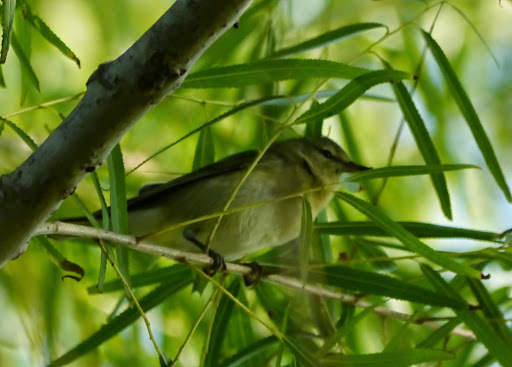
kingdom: Animalia
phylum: Chordata
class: Aves
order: Passeriformes
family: Parulidae
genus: Leiothlypis
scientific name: Leiothlypis peregrina
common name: Tennessee warbler
